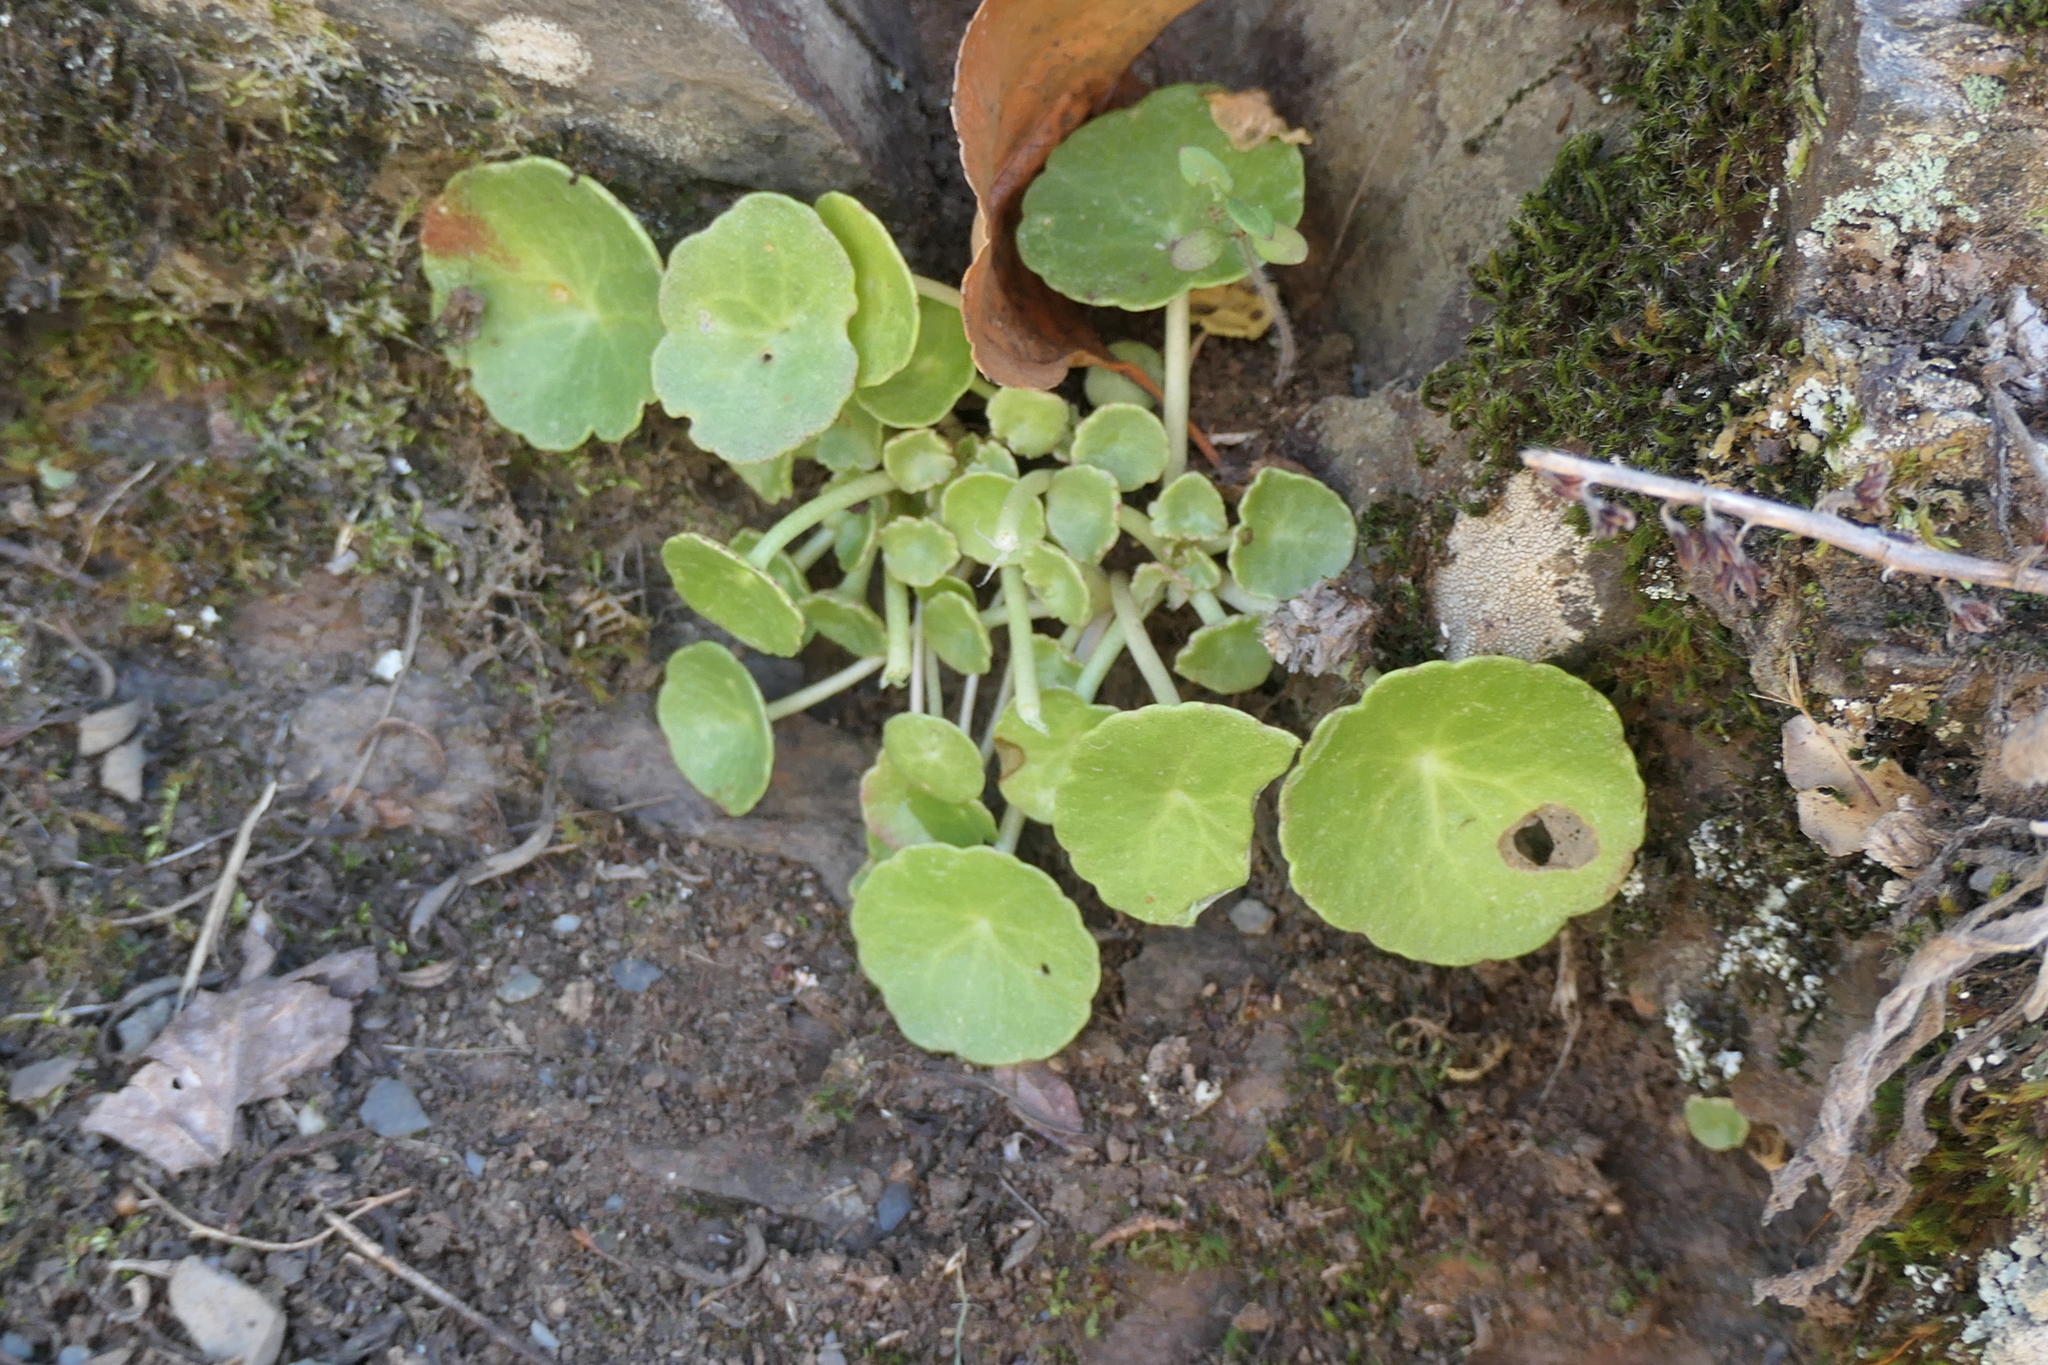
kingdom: Plantae
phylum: Tracheophyta
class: Magnoliopsida
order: Saxifragales
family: Crassulaceae
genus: Umbilicus
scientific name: Umbilicus rupestris
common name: Navelwort
